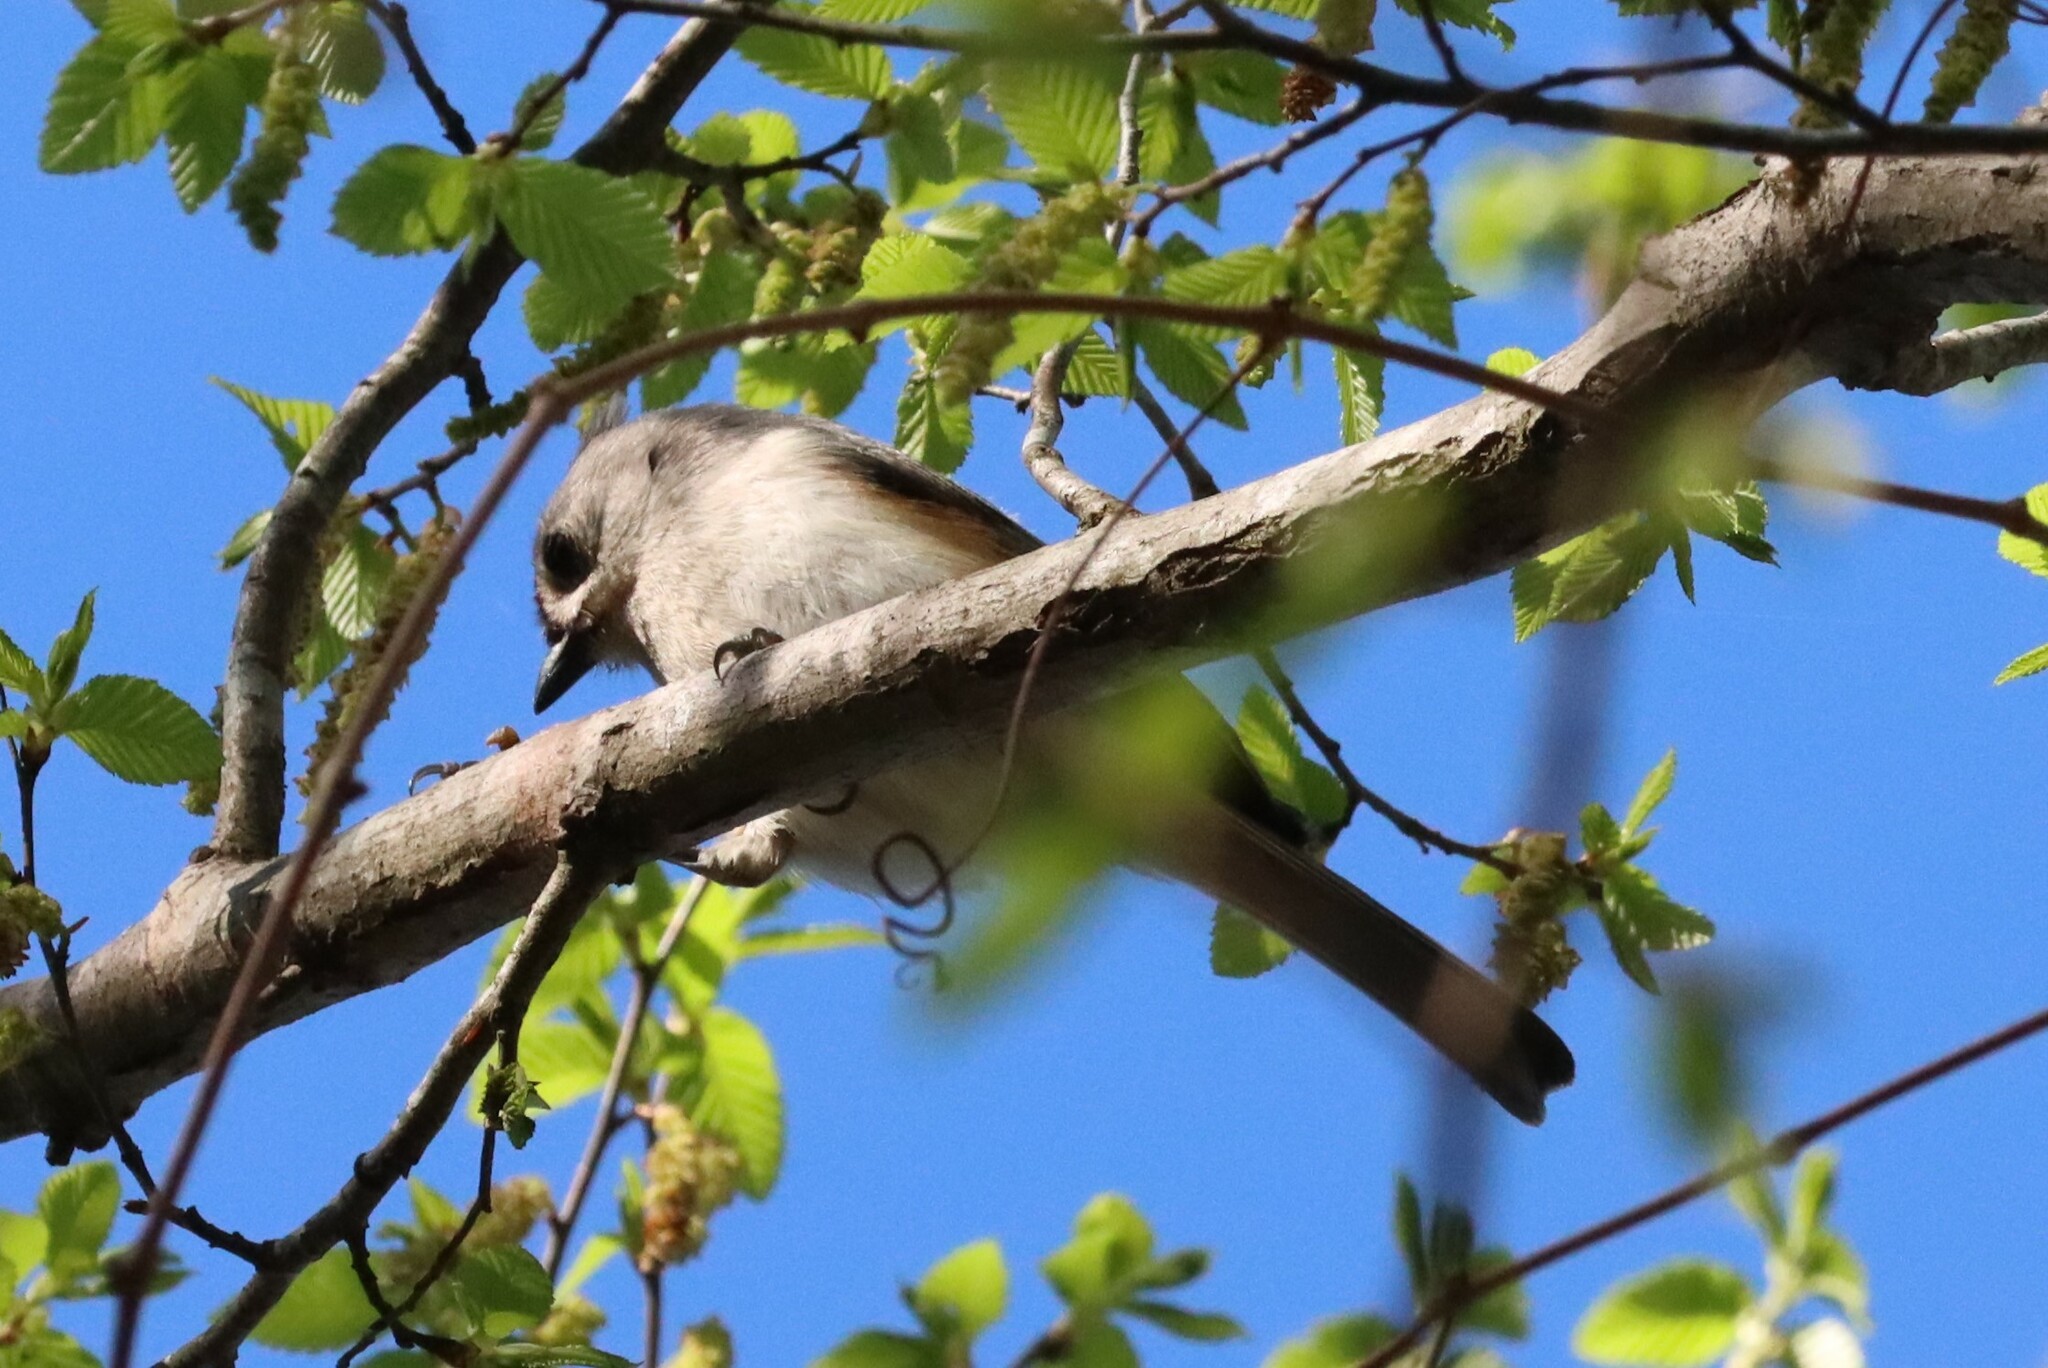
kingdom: Animalia
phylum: Chordata
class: Aves
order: Passeriformes
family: Paridae
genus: Baeolophus
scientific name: Baeolophus bicolor
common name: Tufted titmouse
